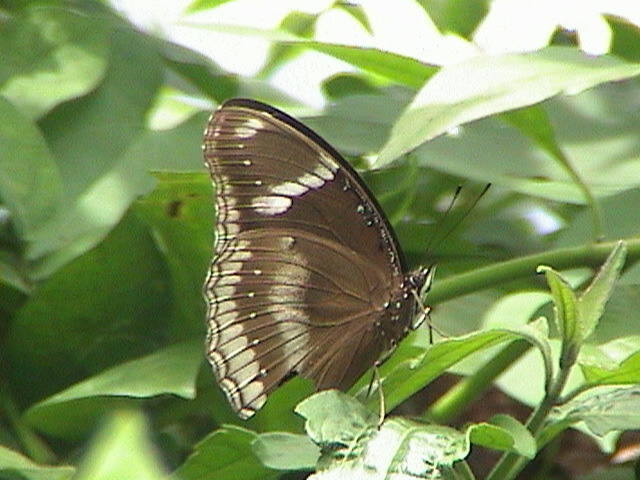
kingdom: Animalia
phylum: Arthropoda
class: Insecta
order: Lepidoptera
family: Nymphalidae
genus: Hypolimnas
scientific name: Hypolimnas bolina
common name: Great eggfly
